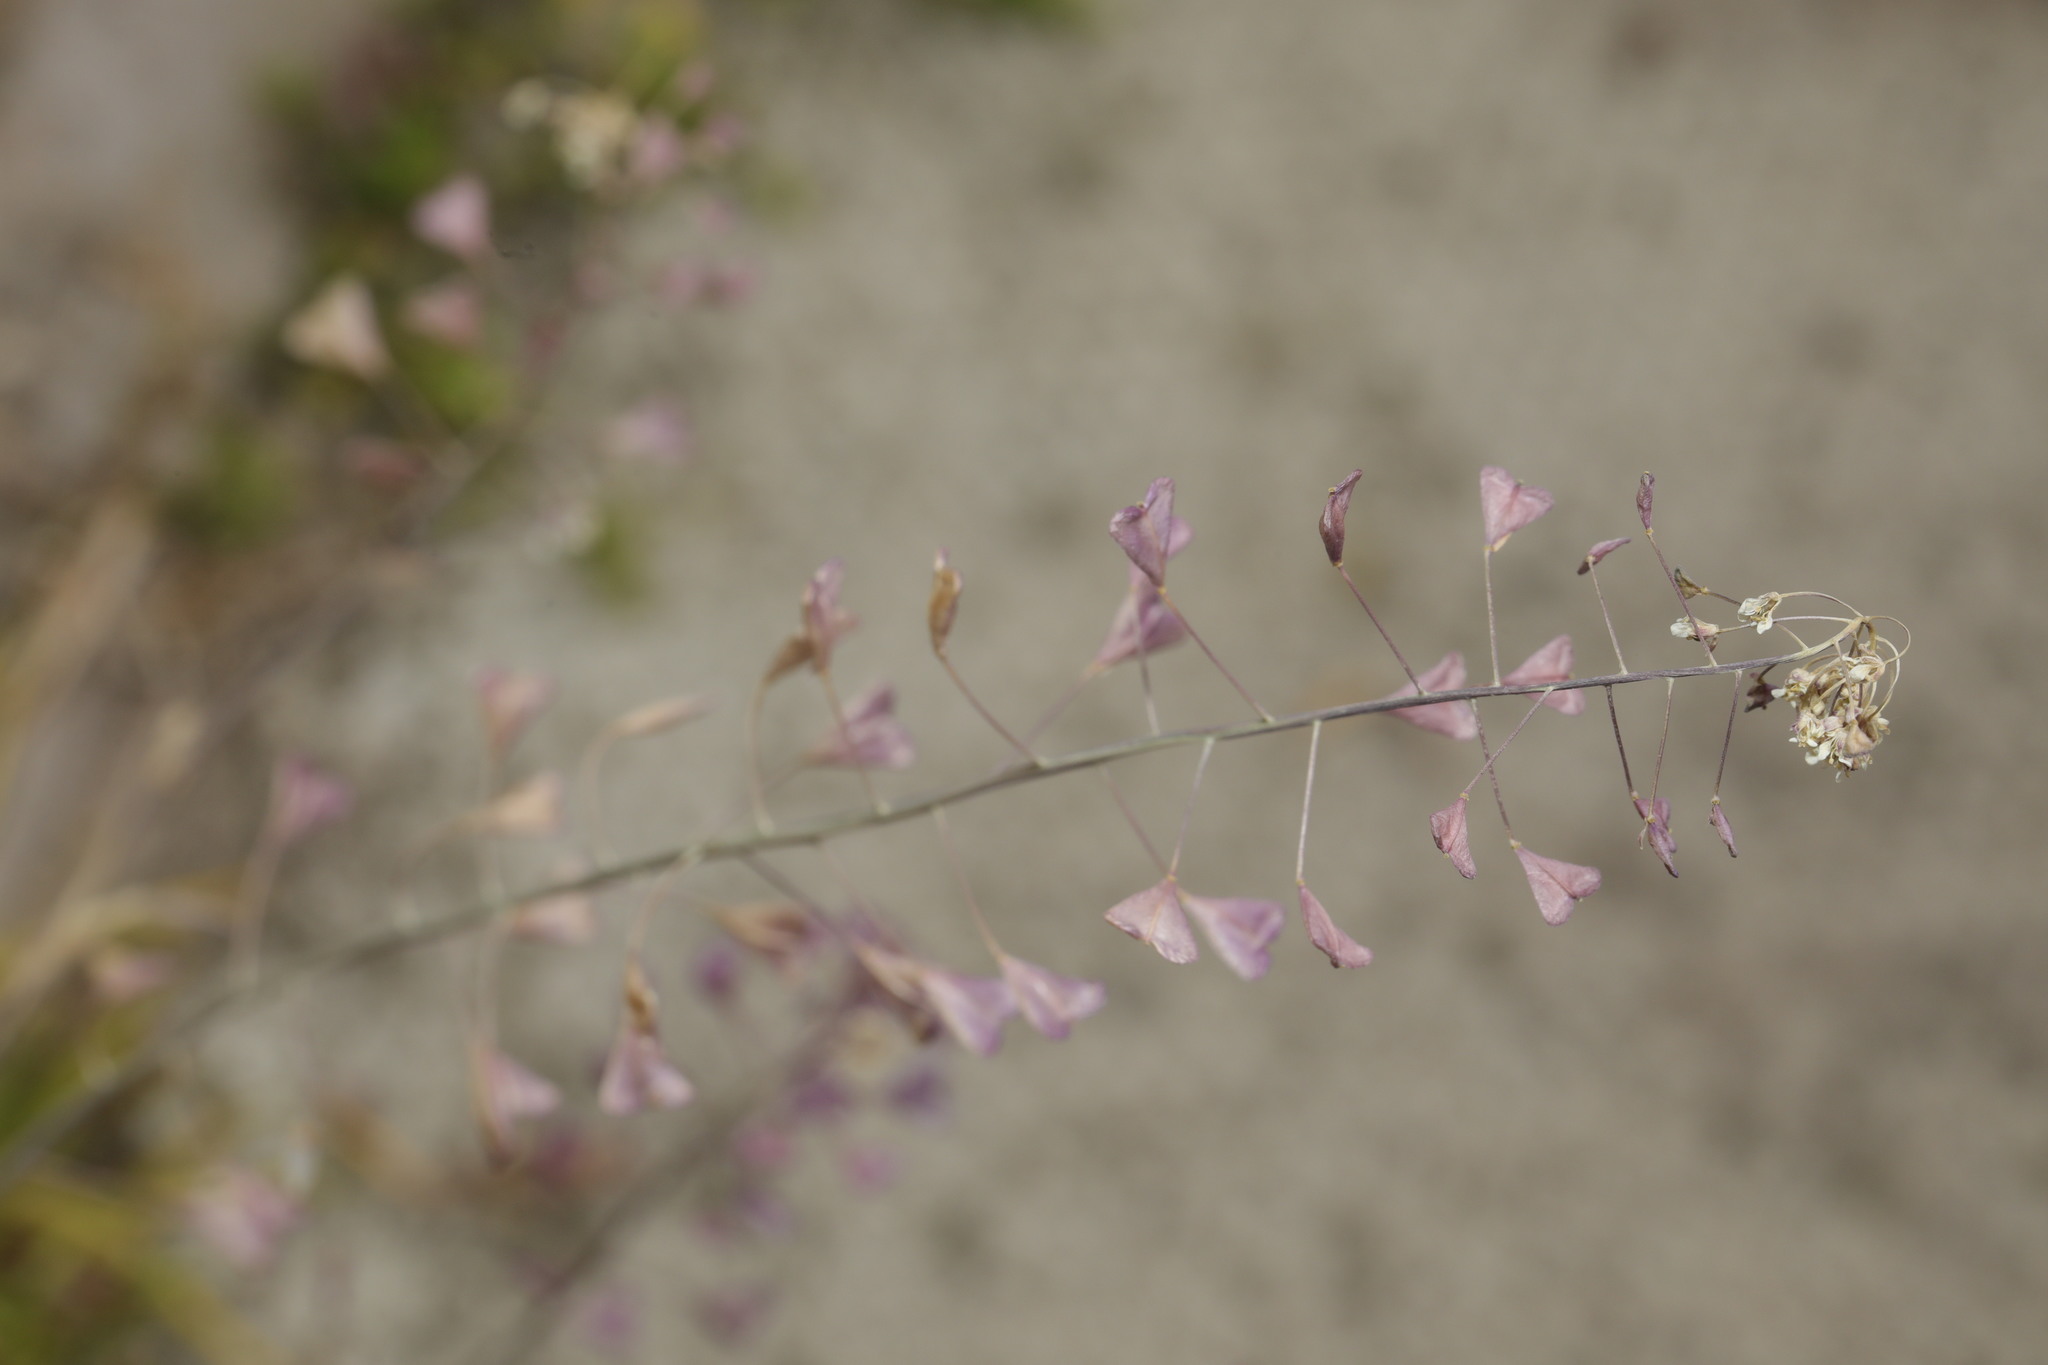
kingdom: Plantae
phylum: Tracheophyta
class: Magnoliopsida
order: Brassicales
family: Brassicaceae
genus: Capsella
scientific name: Capsella bursa-pastoris
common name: Shepherd's purse
